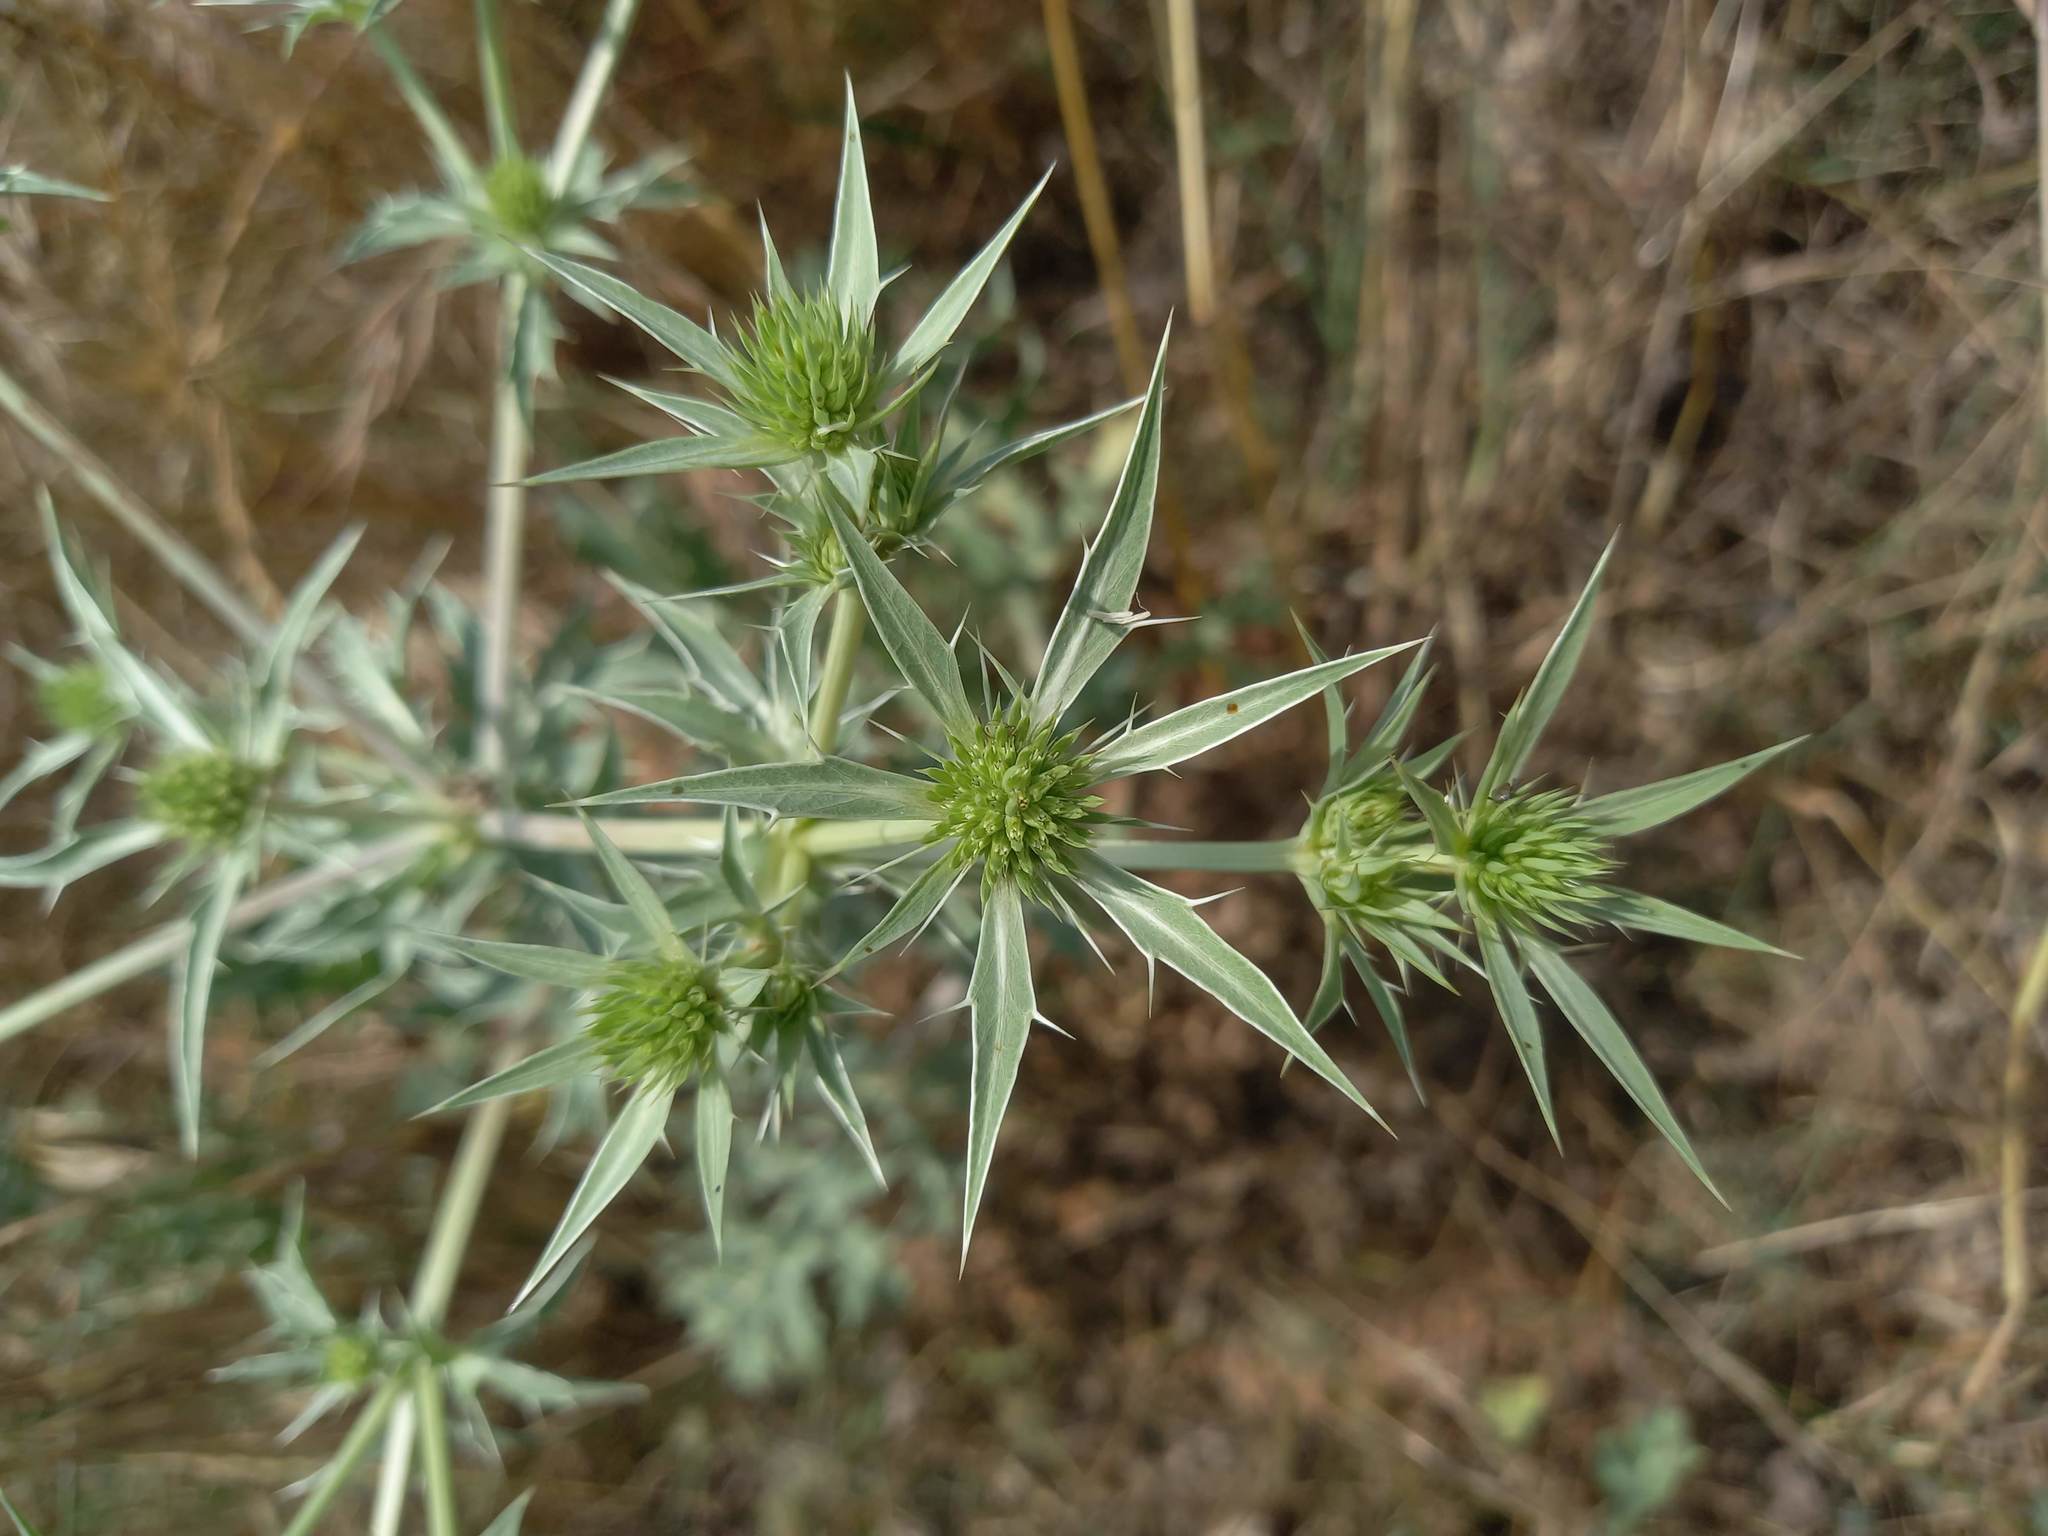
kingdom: Plantae
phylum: Tracheophyta
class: Magnoliopsida
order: Apiales
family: Apiaceae
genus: Eryngium
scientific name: Eryngium campestre
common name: Field eryngo
